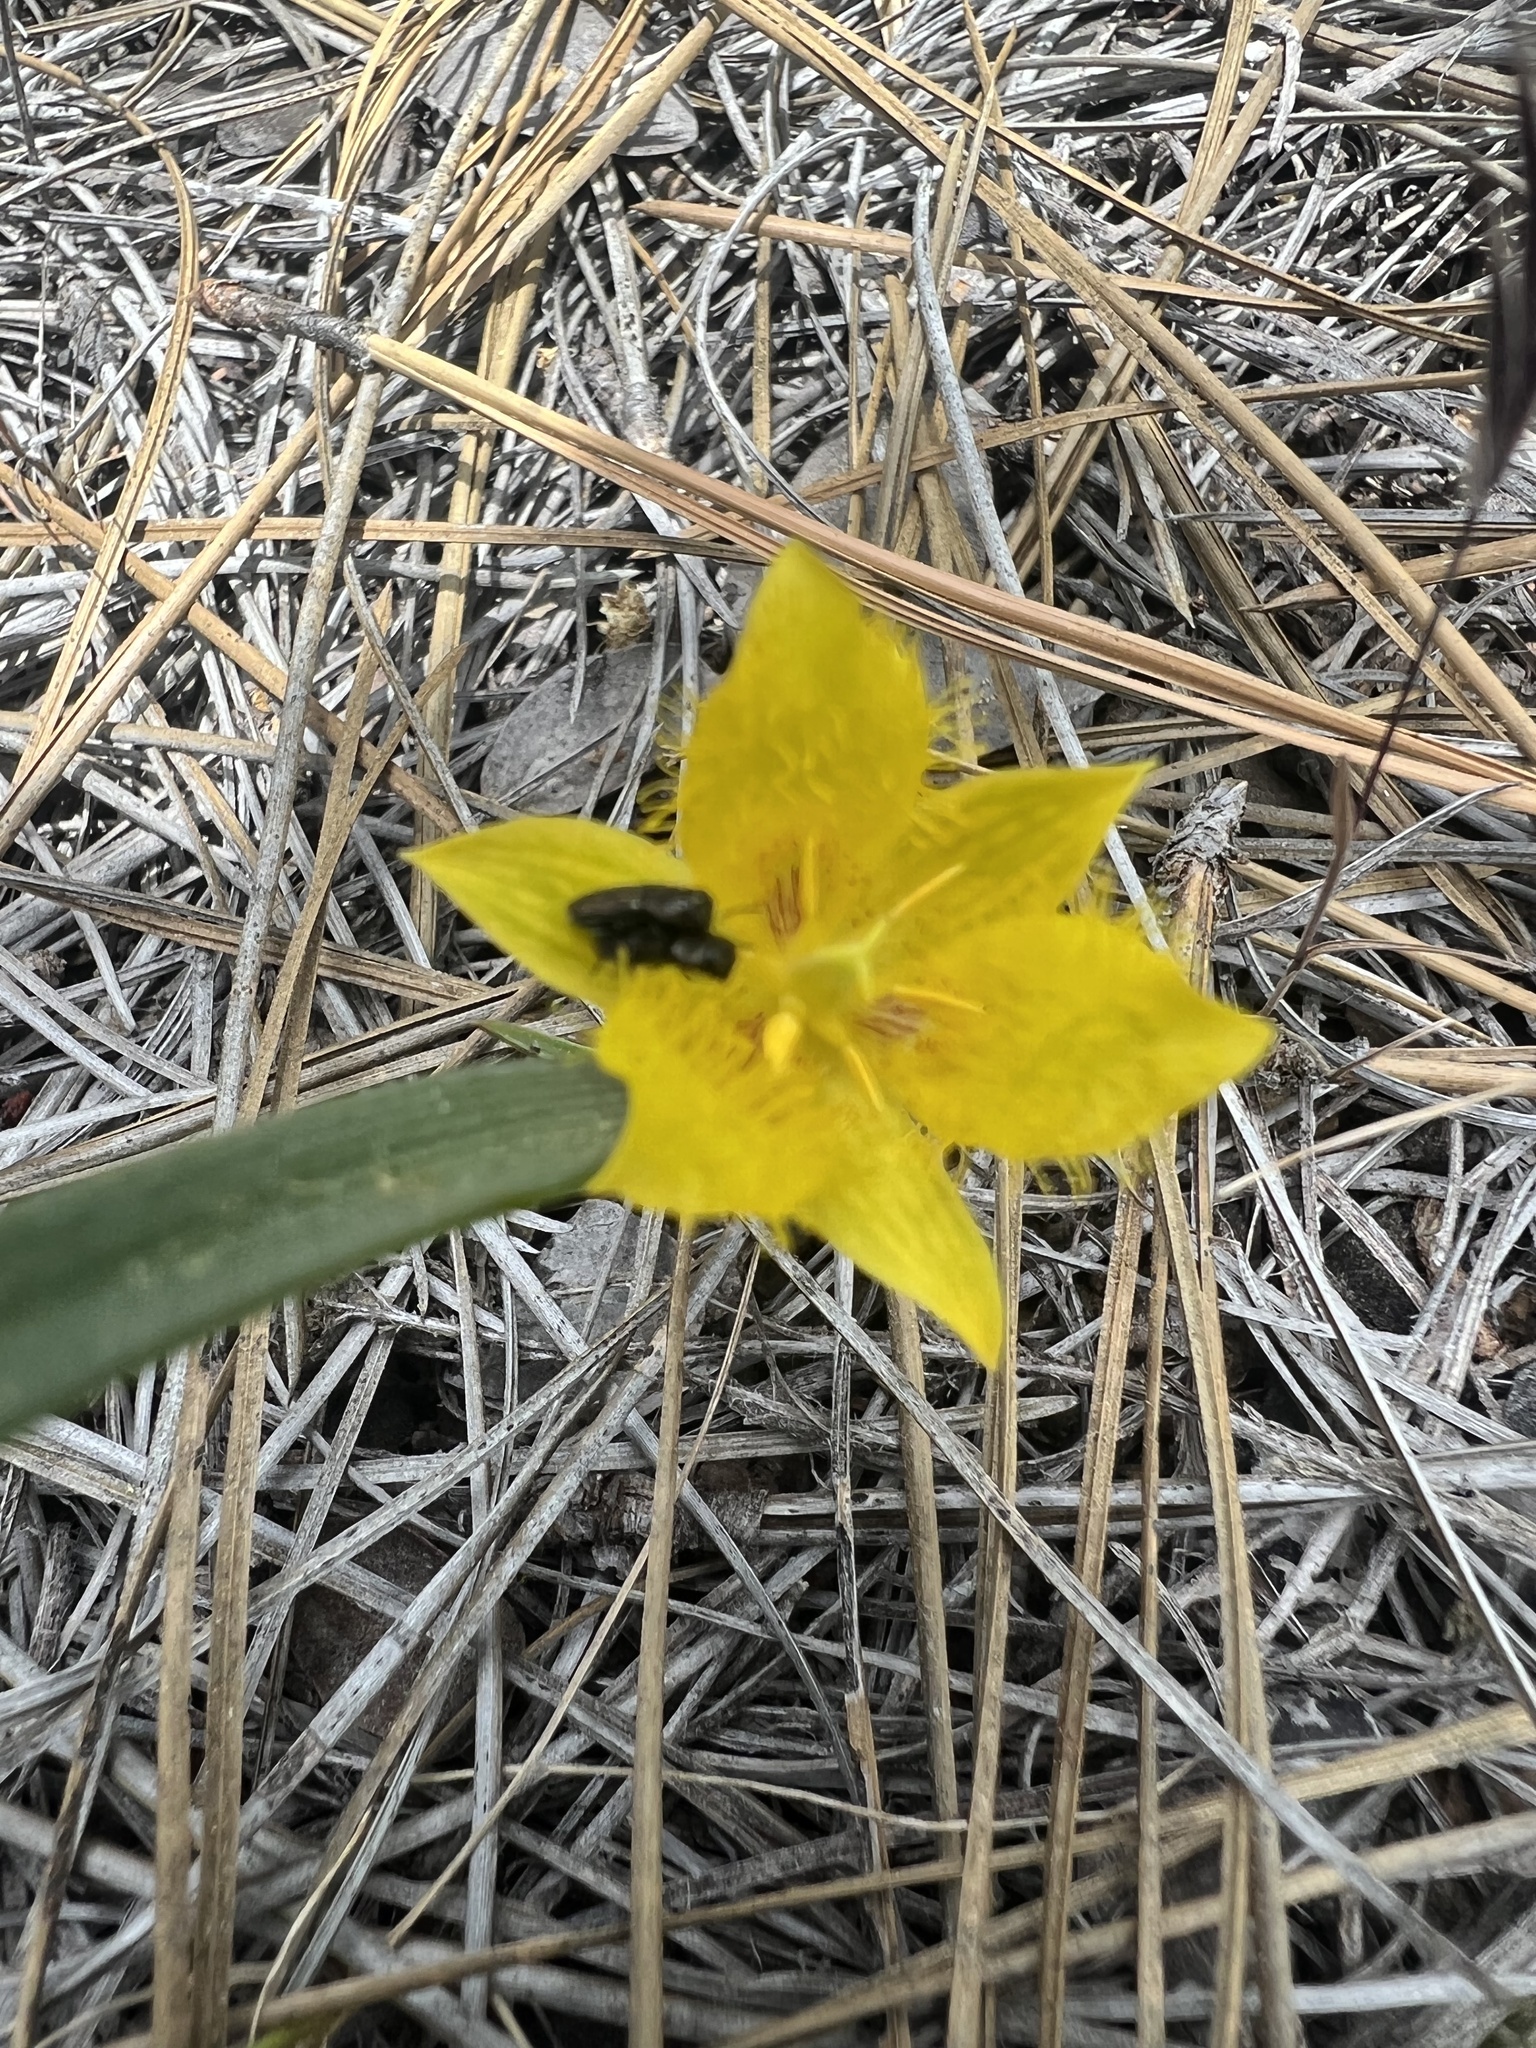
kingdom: Plantae
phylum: Tracheophyta
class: Liliopsida
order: Liliales
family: Liliaceae
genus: Calochortus
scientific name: Calochortus monophyllus
